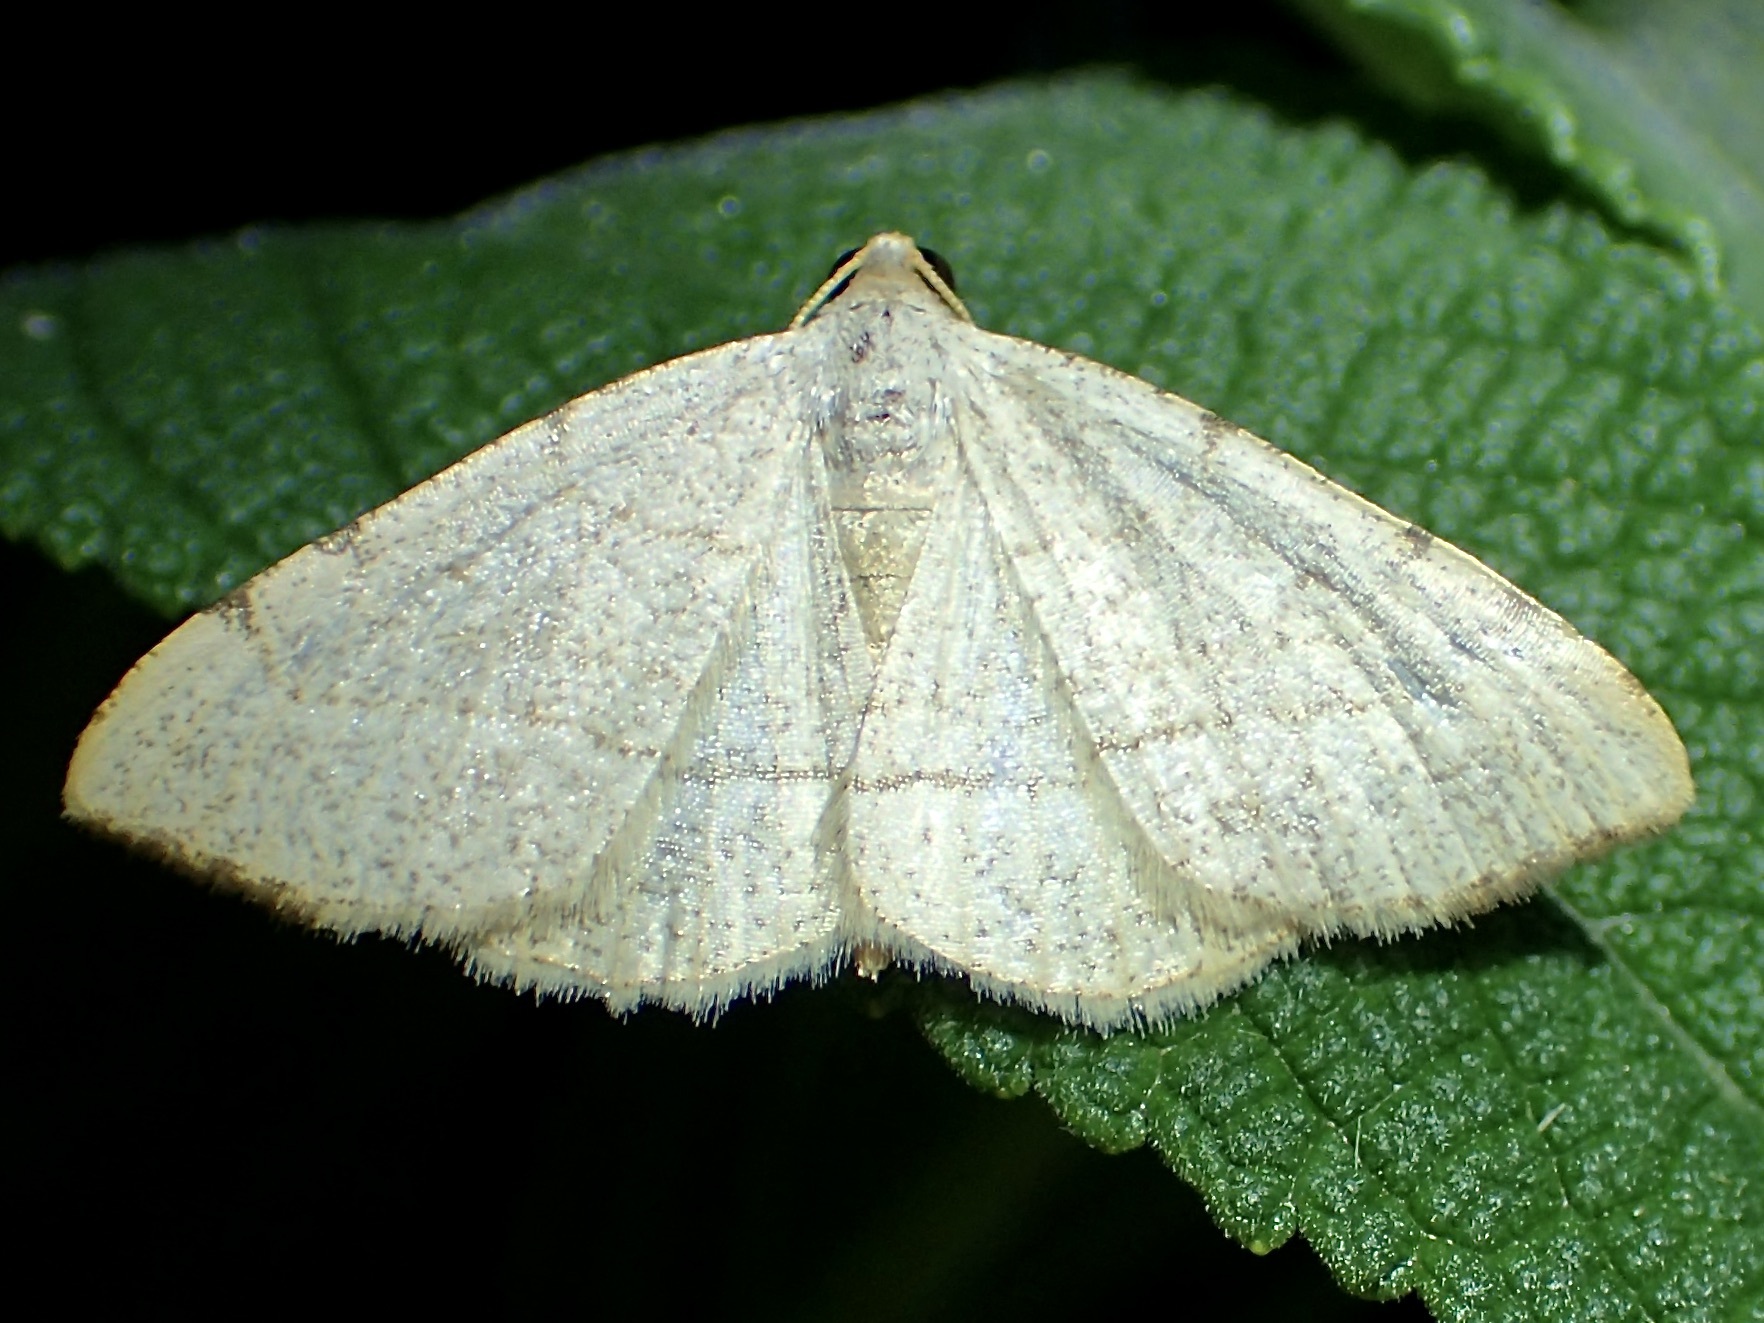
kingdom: Animalia
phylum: Arthropoda
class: Insecta
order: Lepidoptera
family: Geometridae
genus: Macaria
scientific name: Macaria octolineata
